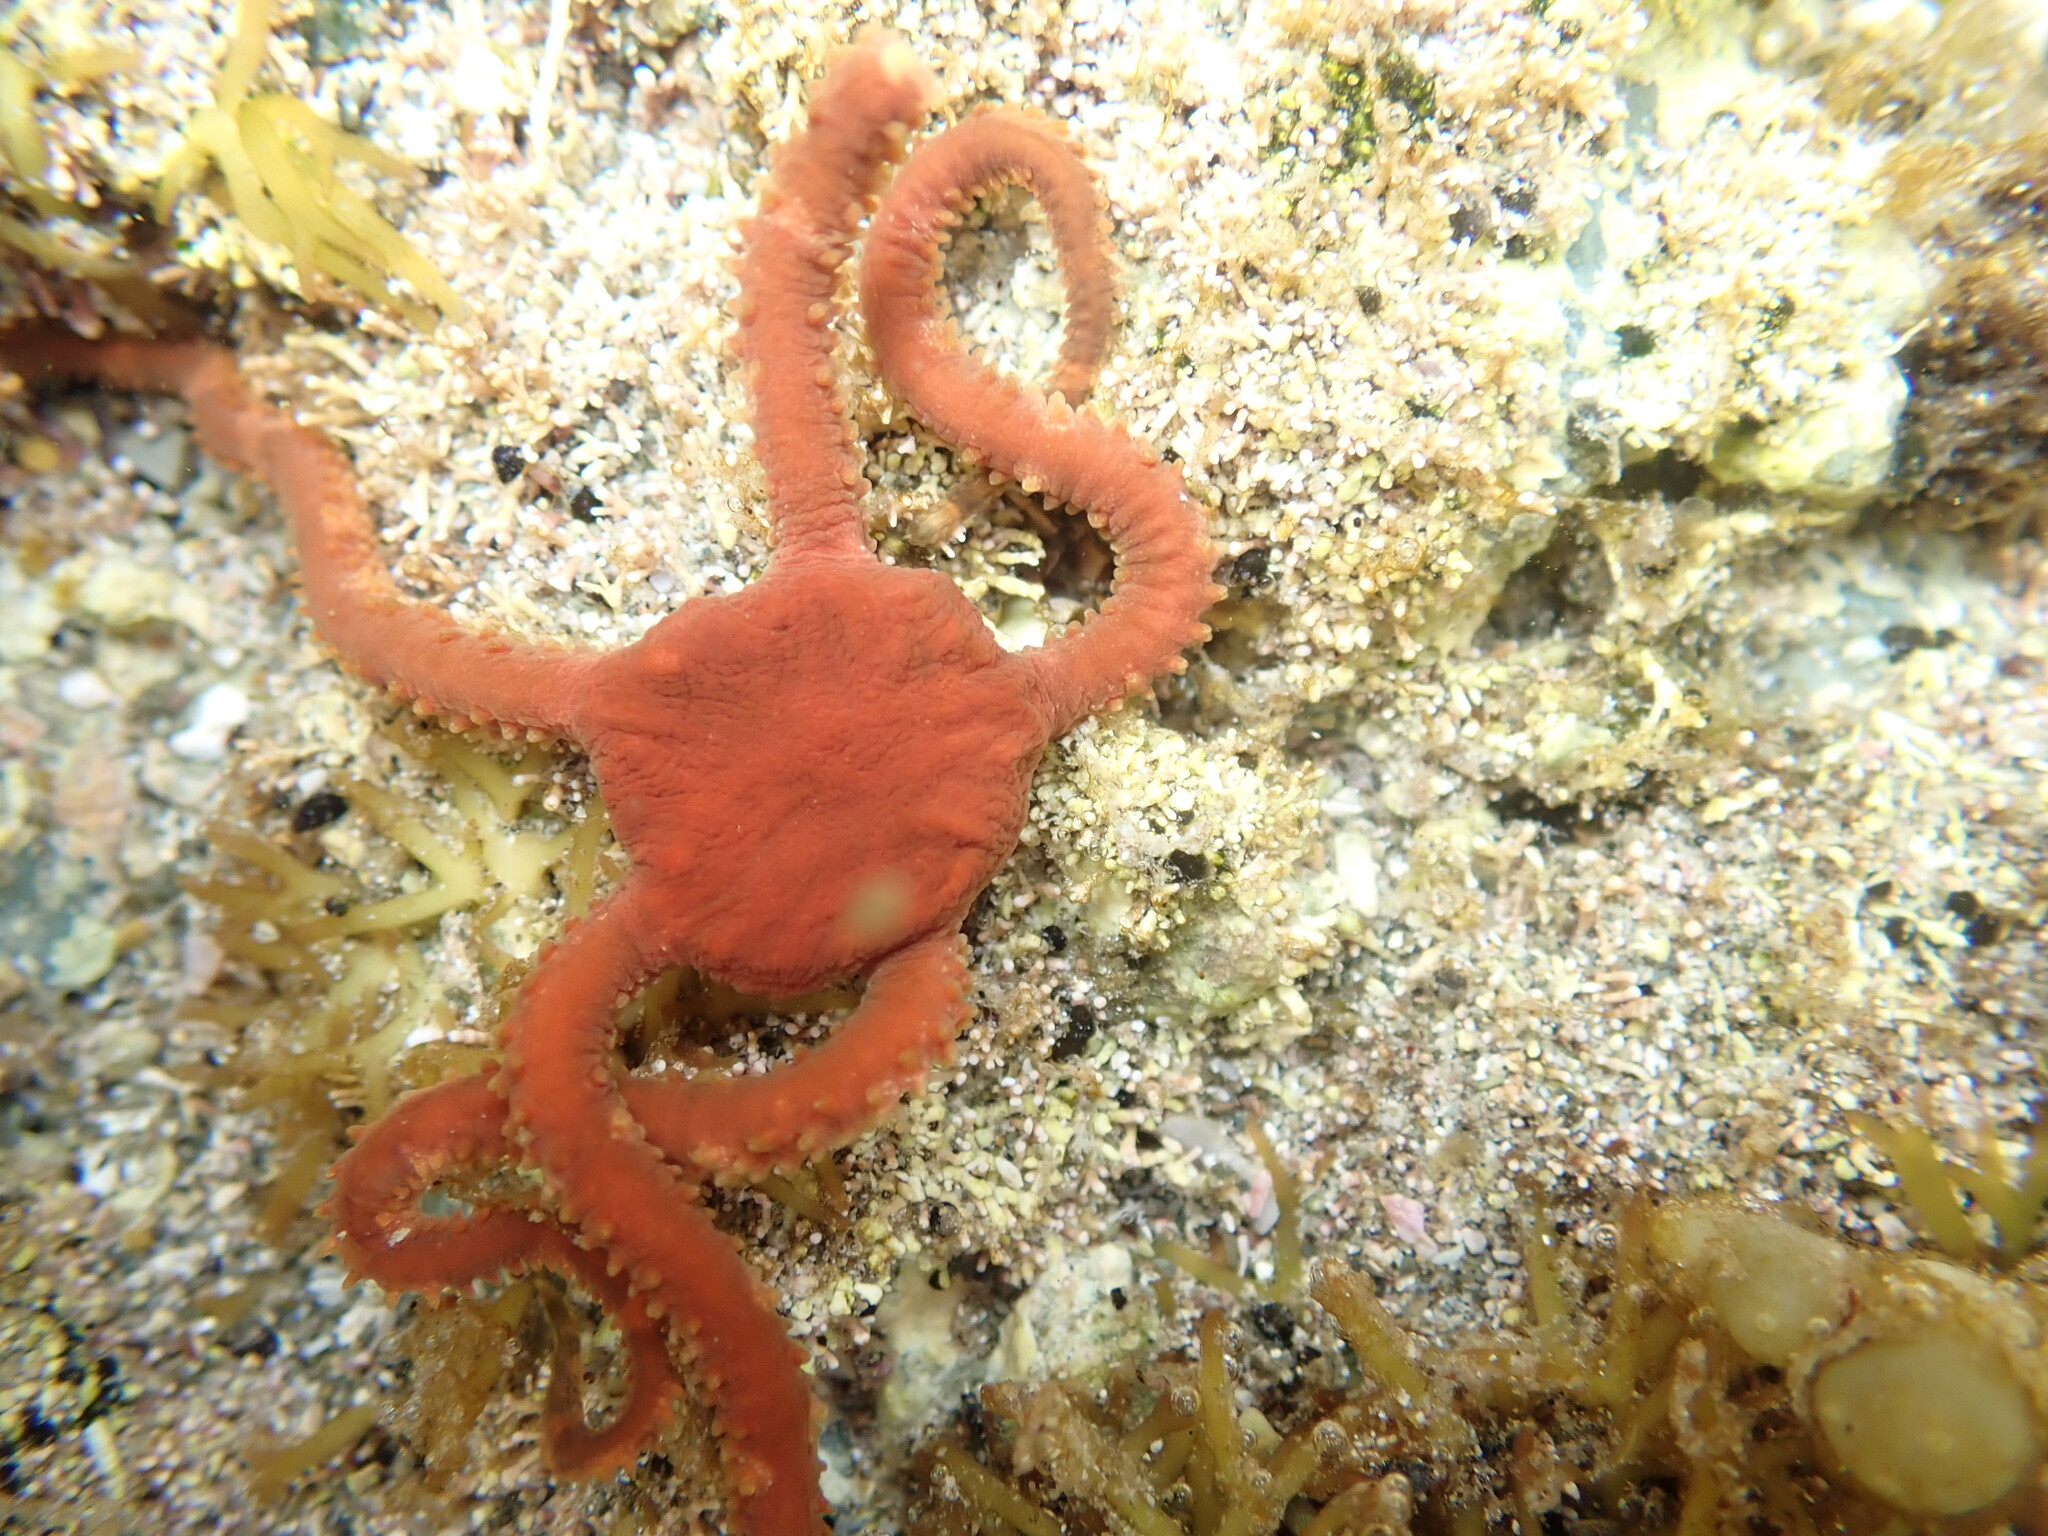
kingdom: Animalia
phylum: Echinodermata
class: Ophiuroidea
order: Ophiacanthida
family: Ophiomyxidae
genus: Ophiomyxa
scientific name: Ophiomyxa brevirima
